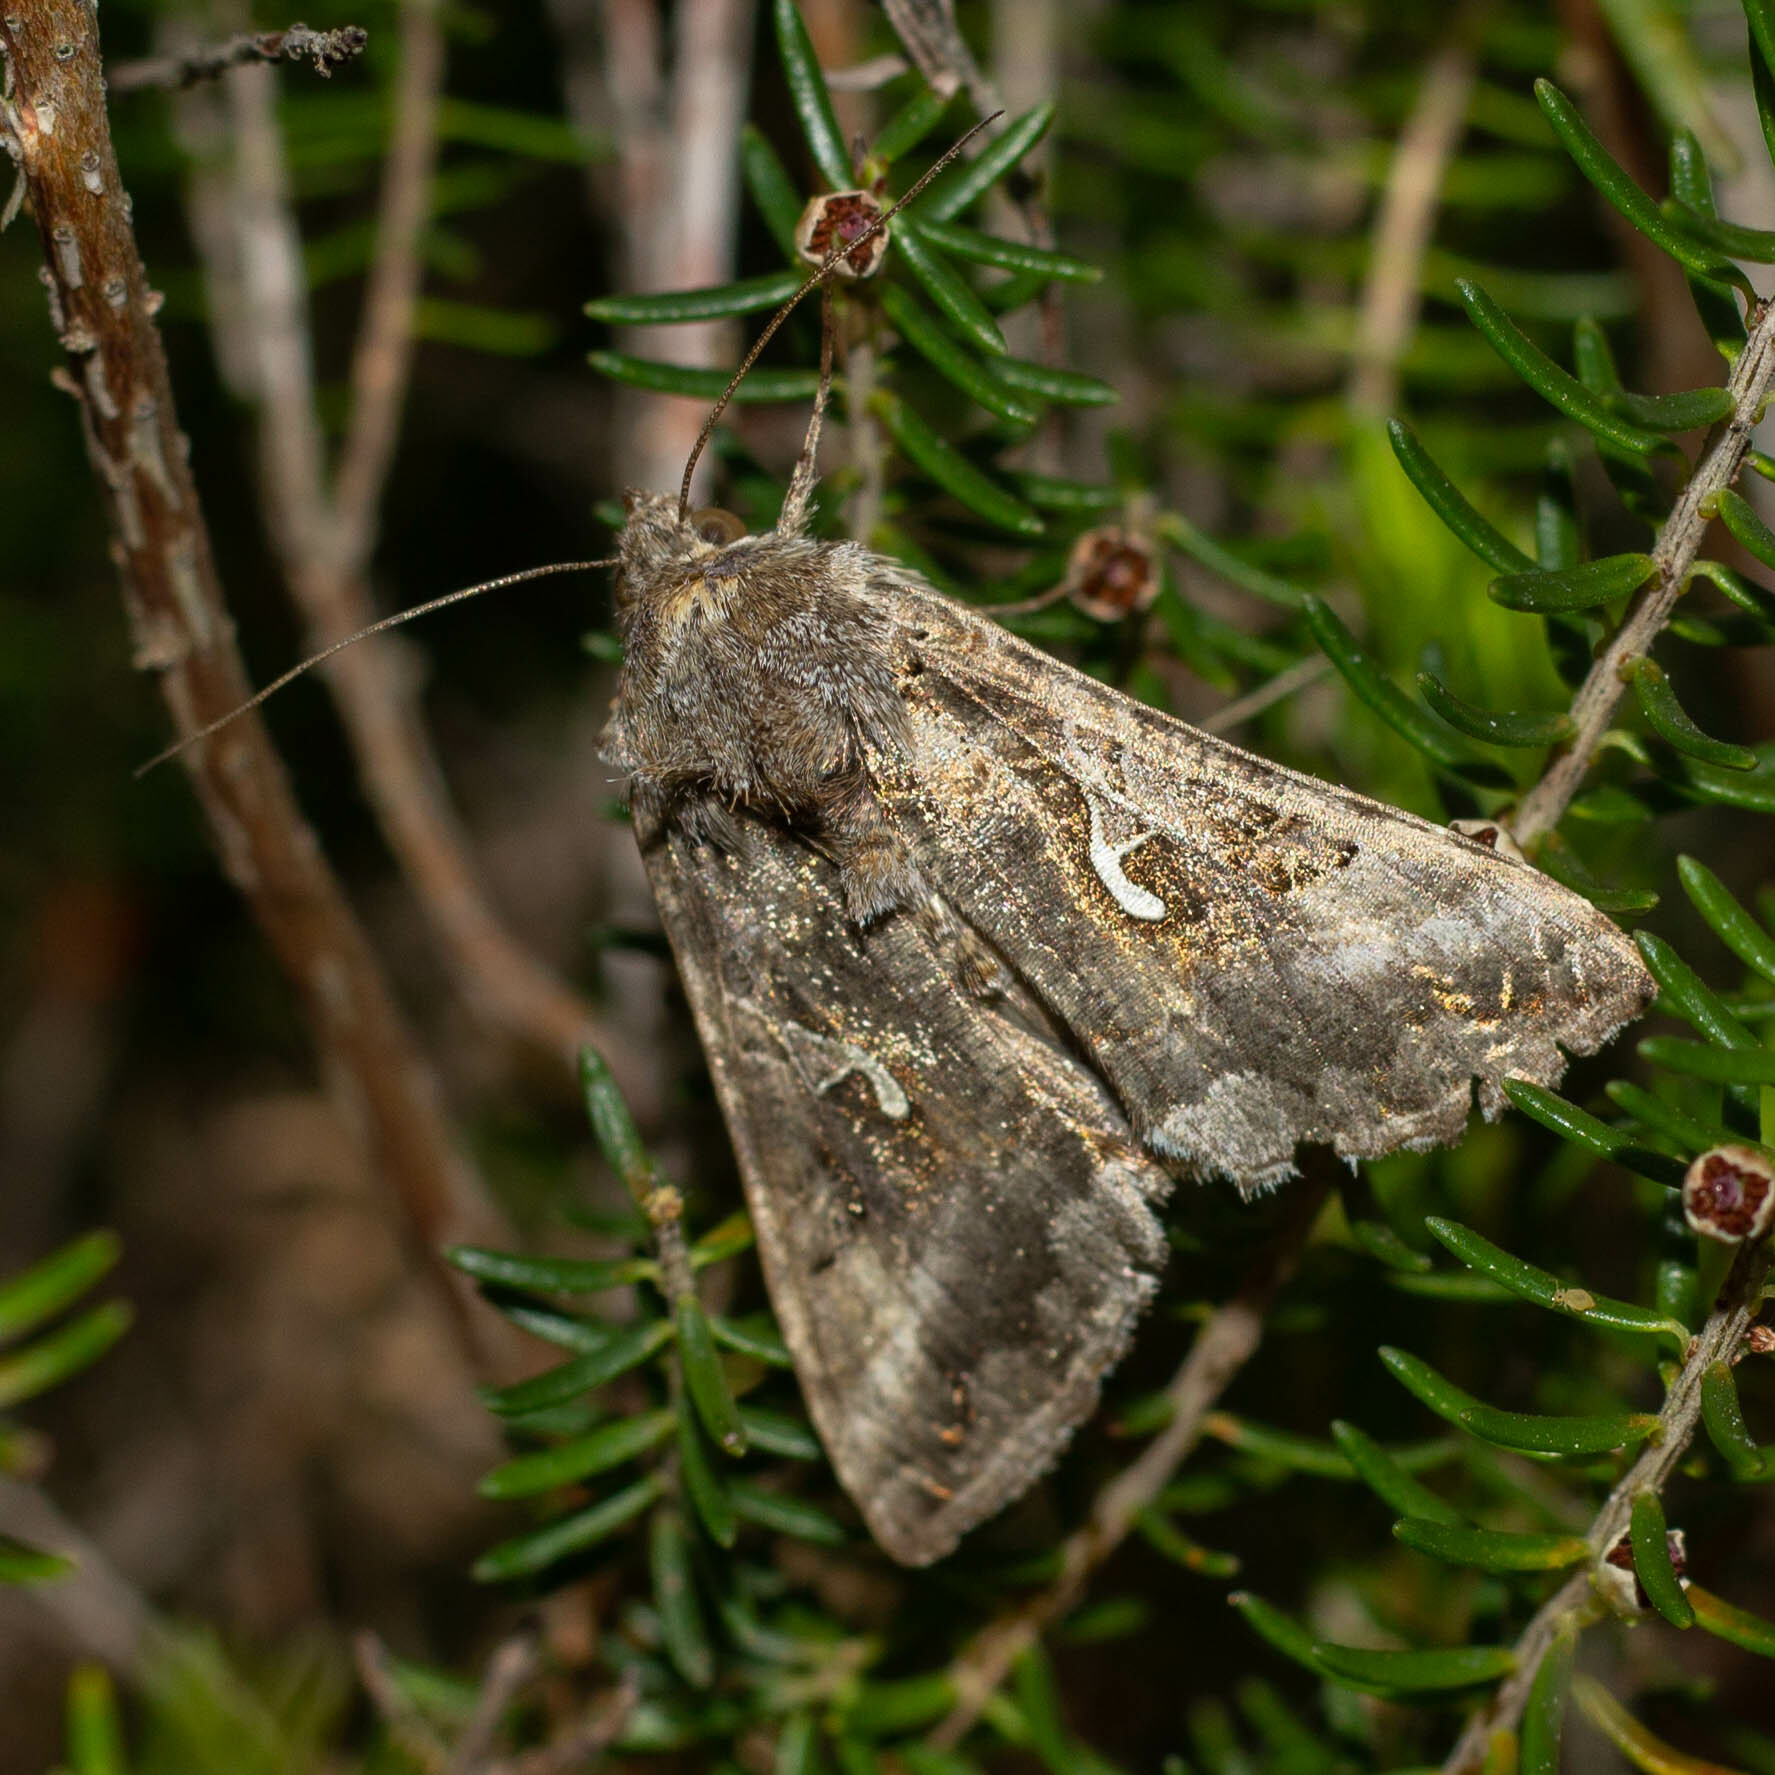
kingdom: Animalia
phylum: Arthropoda
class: Insecta
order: Lepidoptera
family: Noctuidae
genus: Autographa
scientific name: Autographa gamma
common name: Silver y
